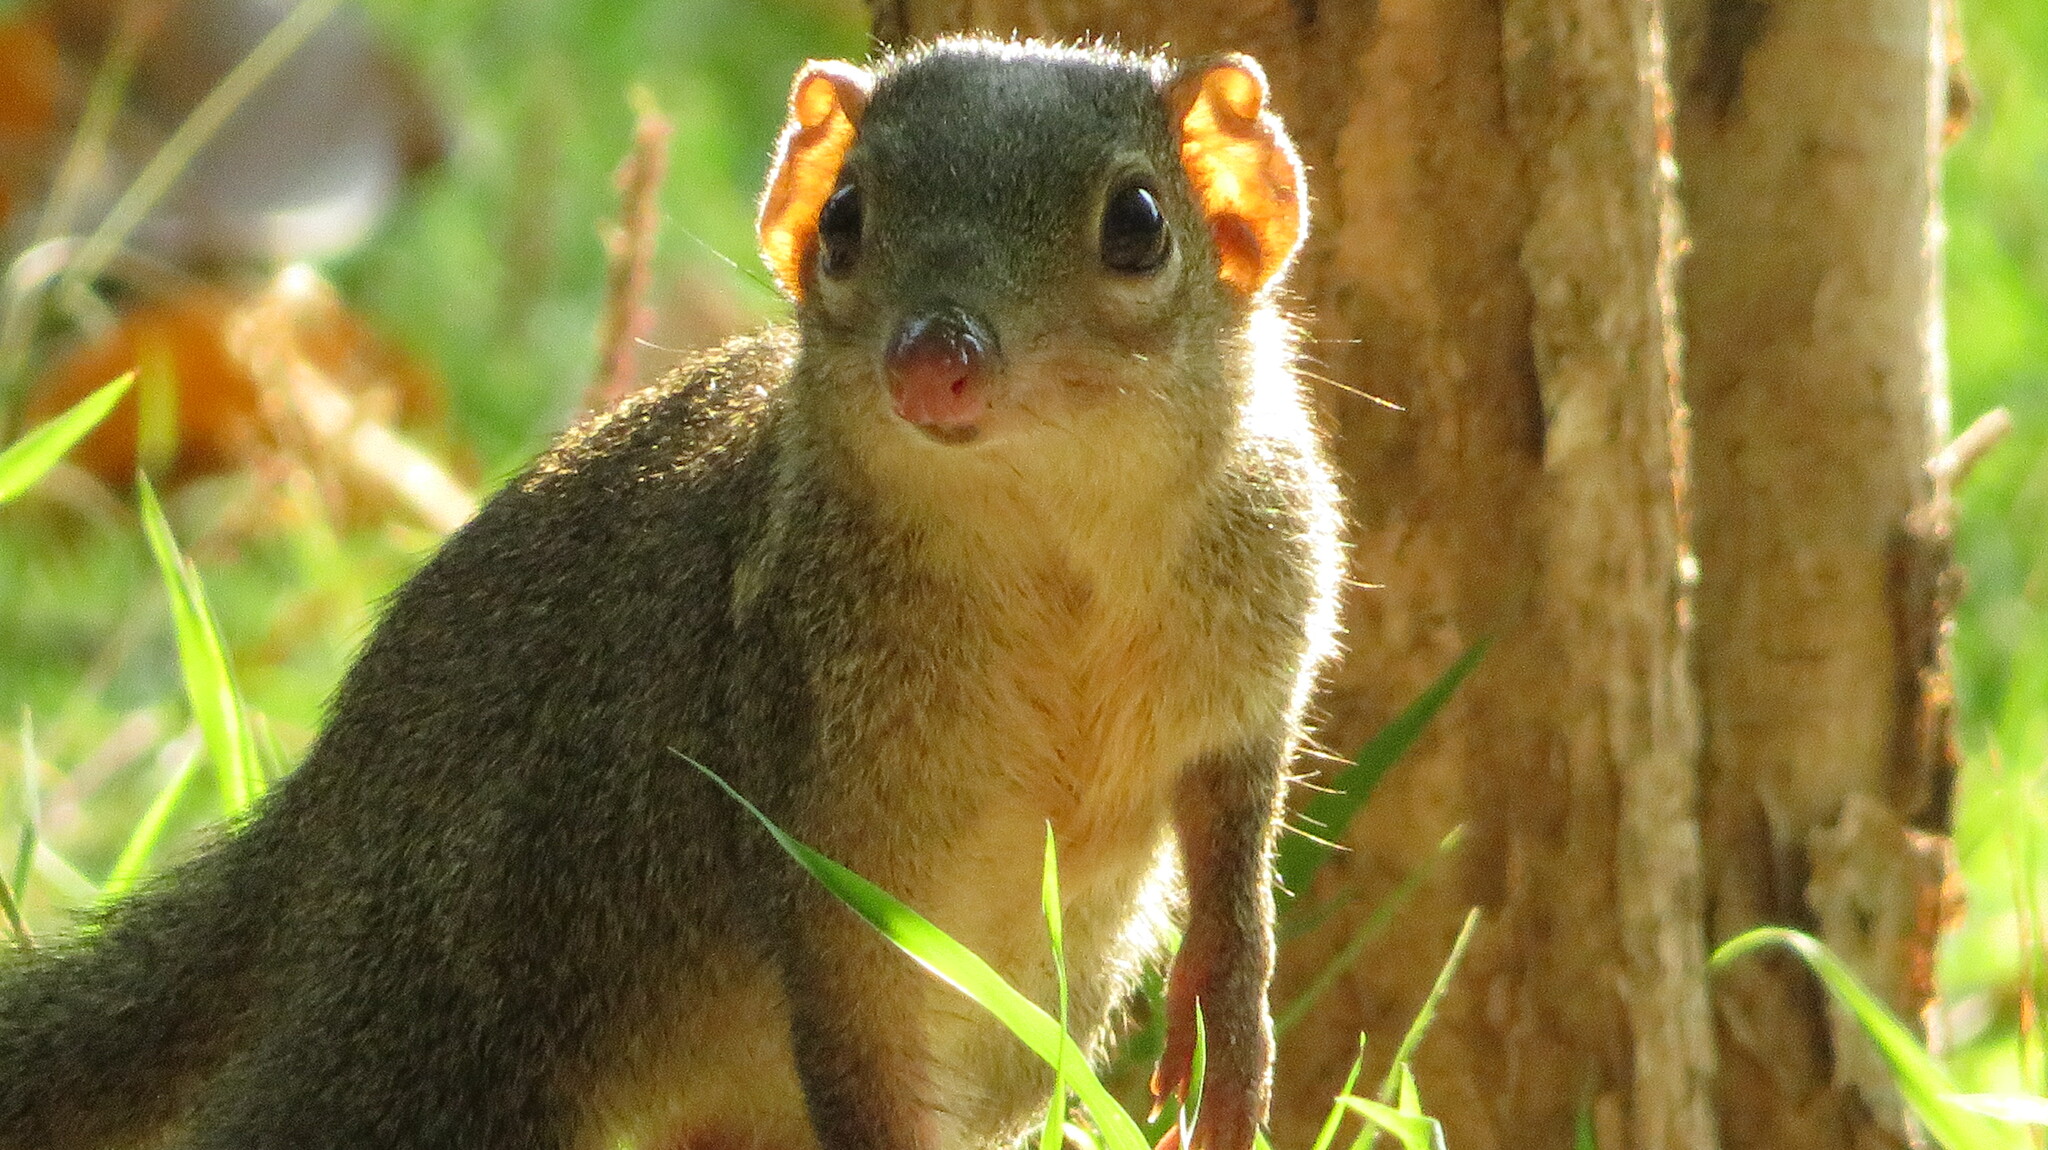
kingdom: Animalia
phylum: Chordata
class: Mammalia
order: Scandentia
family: Tupaiidae
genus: Tupaia
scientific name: Tupaia belangeri
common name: Northern treeshrew
